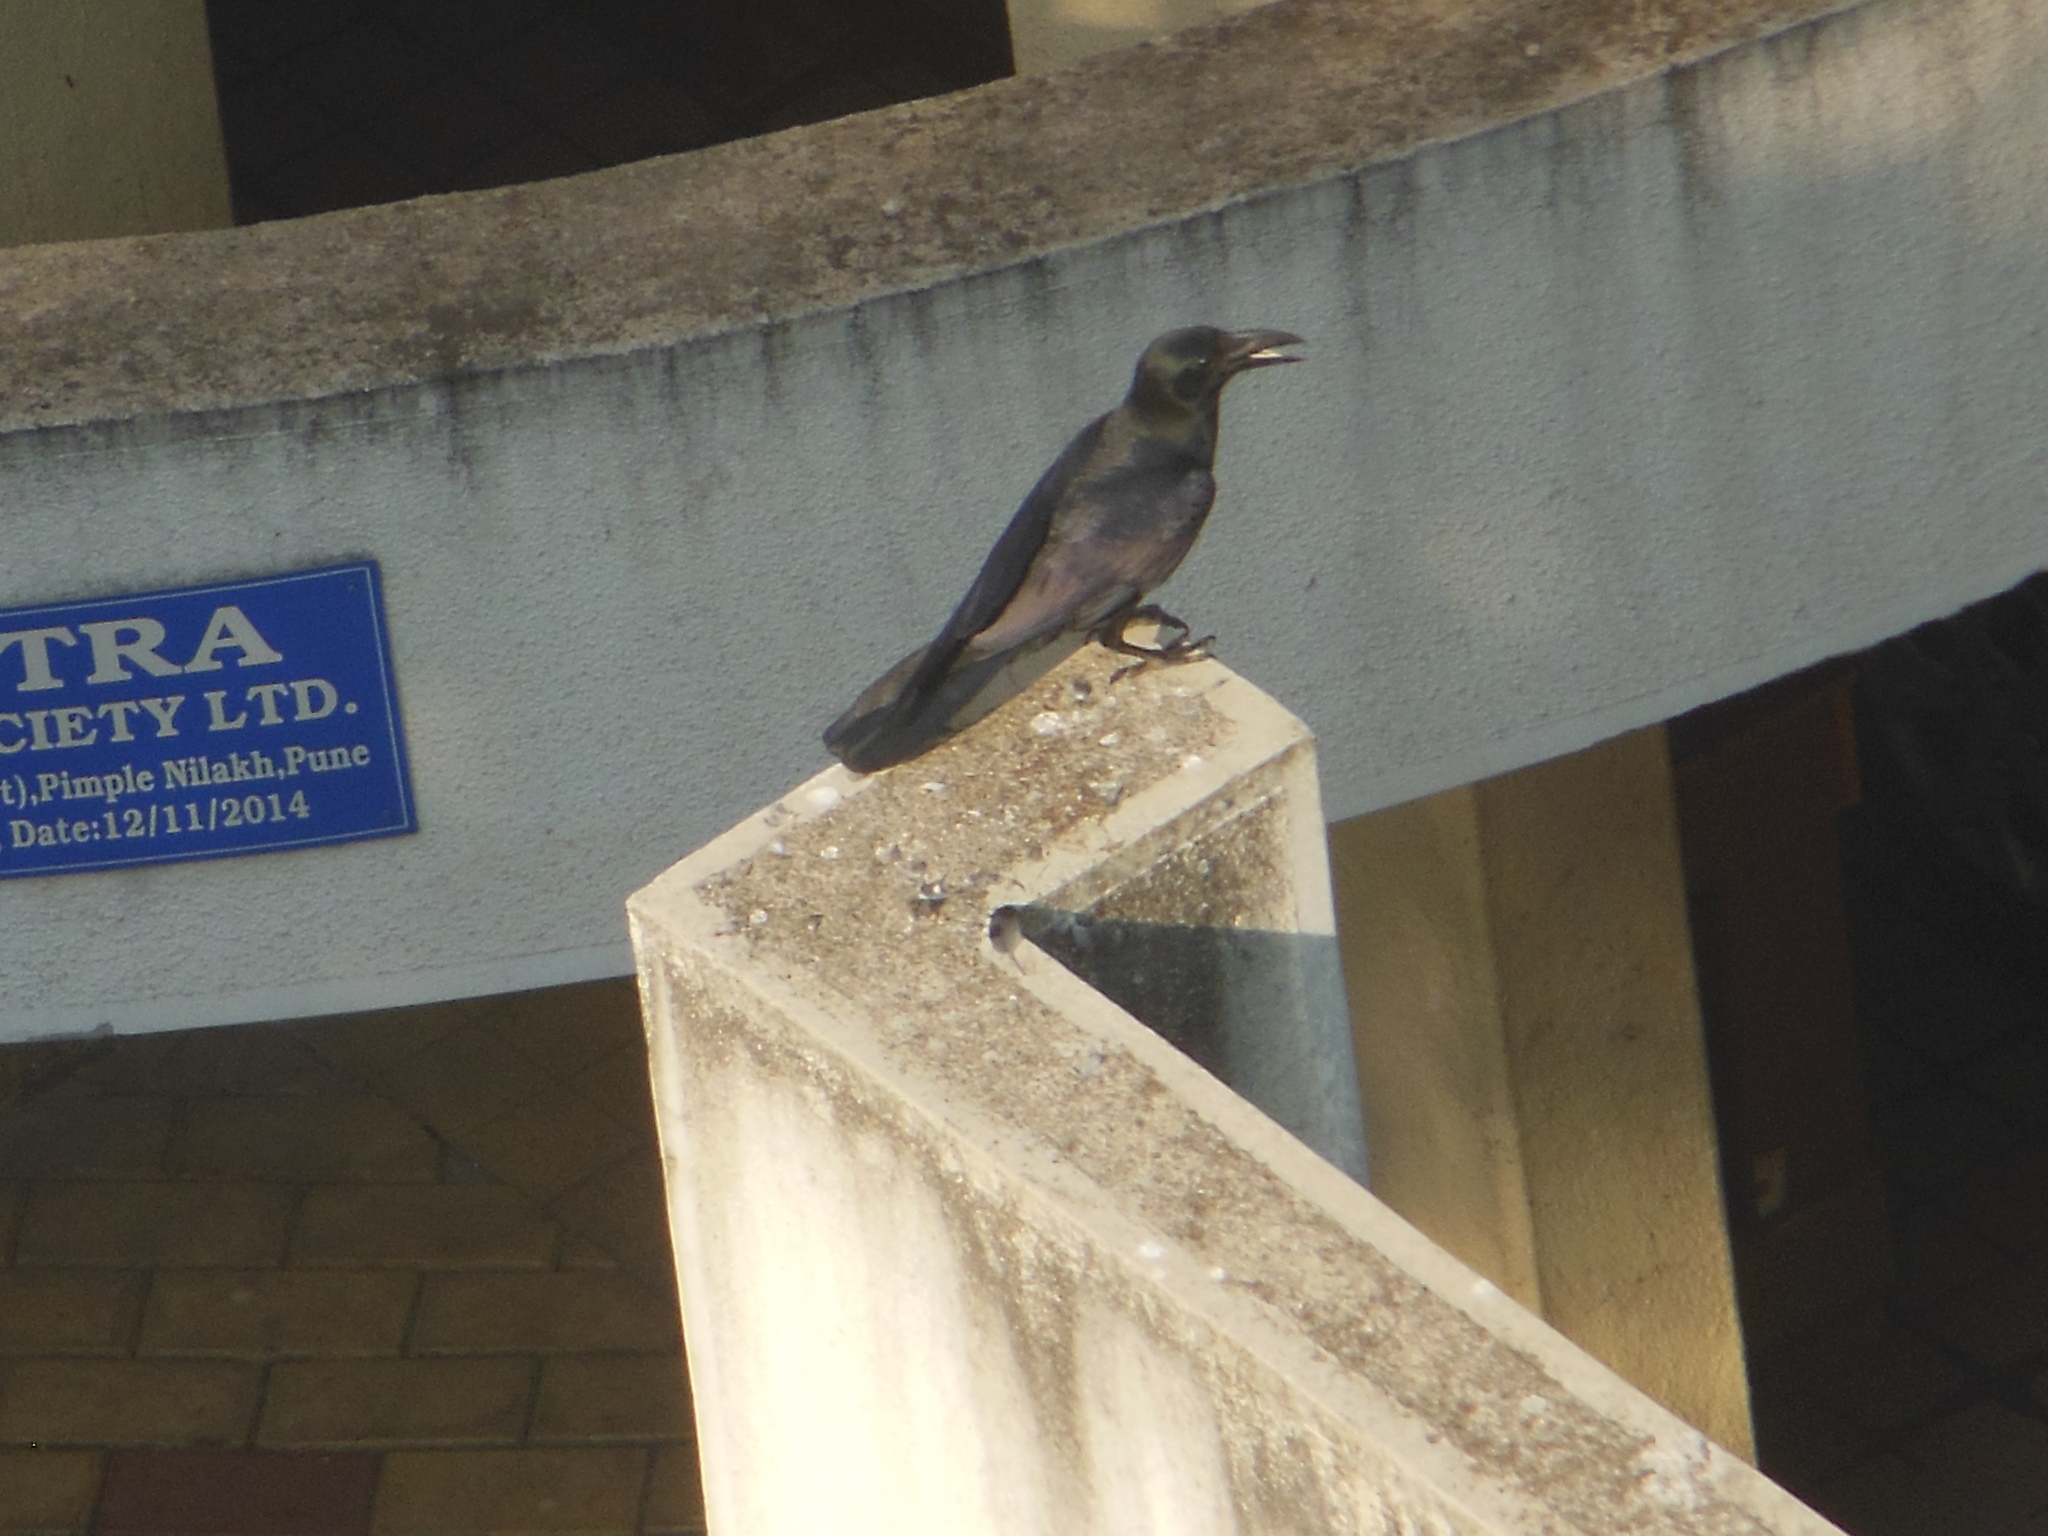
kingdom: Animalia
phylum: Chordata
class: Aves
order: Passeriformes
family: Corvidae
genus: Corvus
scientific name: Corvus macrorhynchos
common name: Large-billed crow
